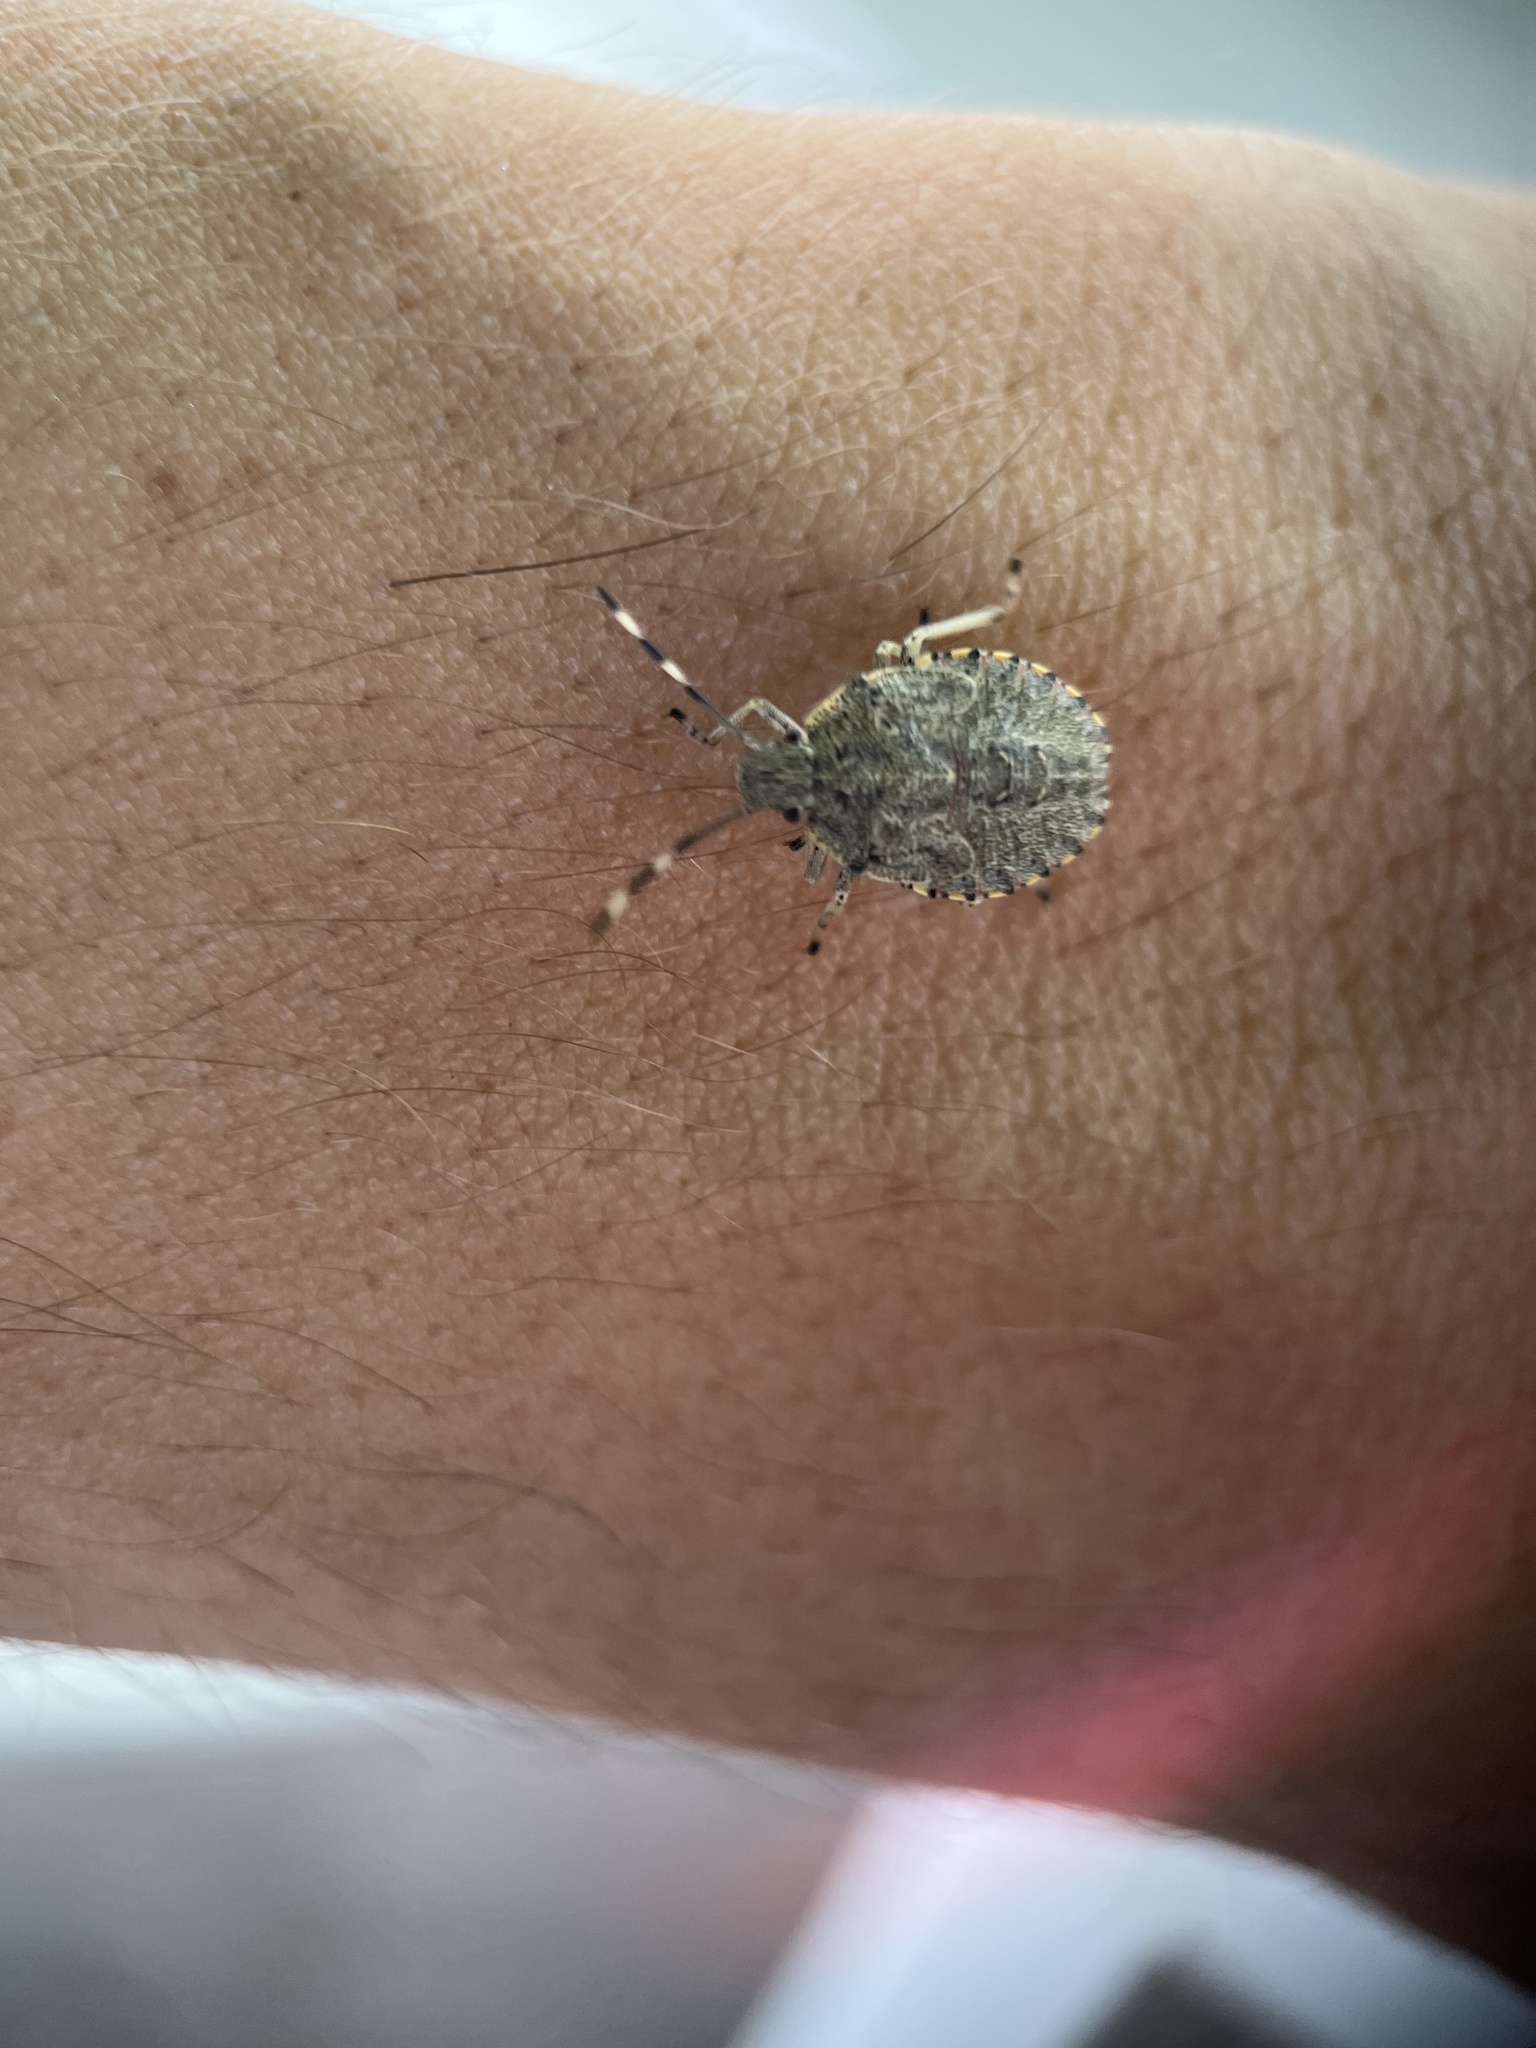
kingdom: Animalia
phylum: Arthropoda
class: Insecta
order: Hemiptera
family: Pentatomidae
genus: Rhaphigaster
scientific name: Rhaphigaster nebulosa
